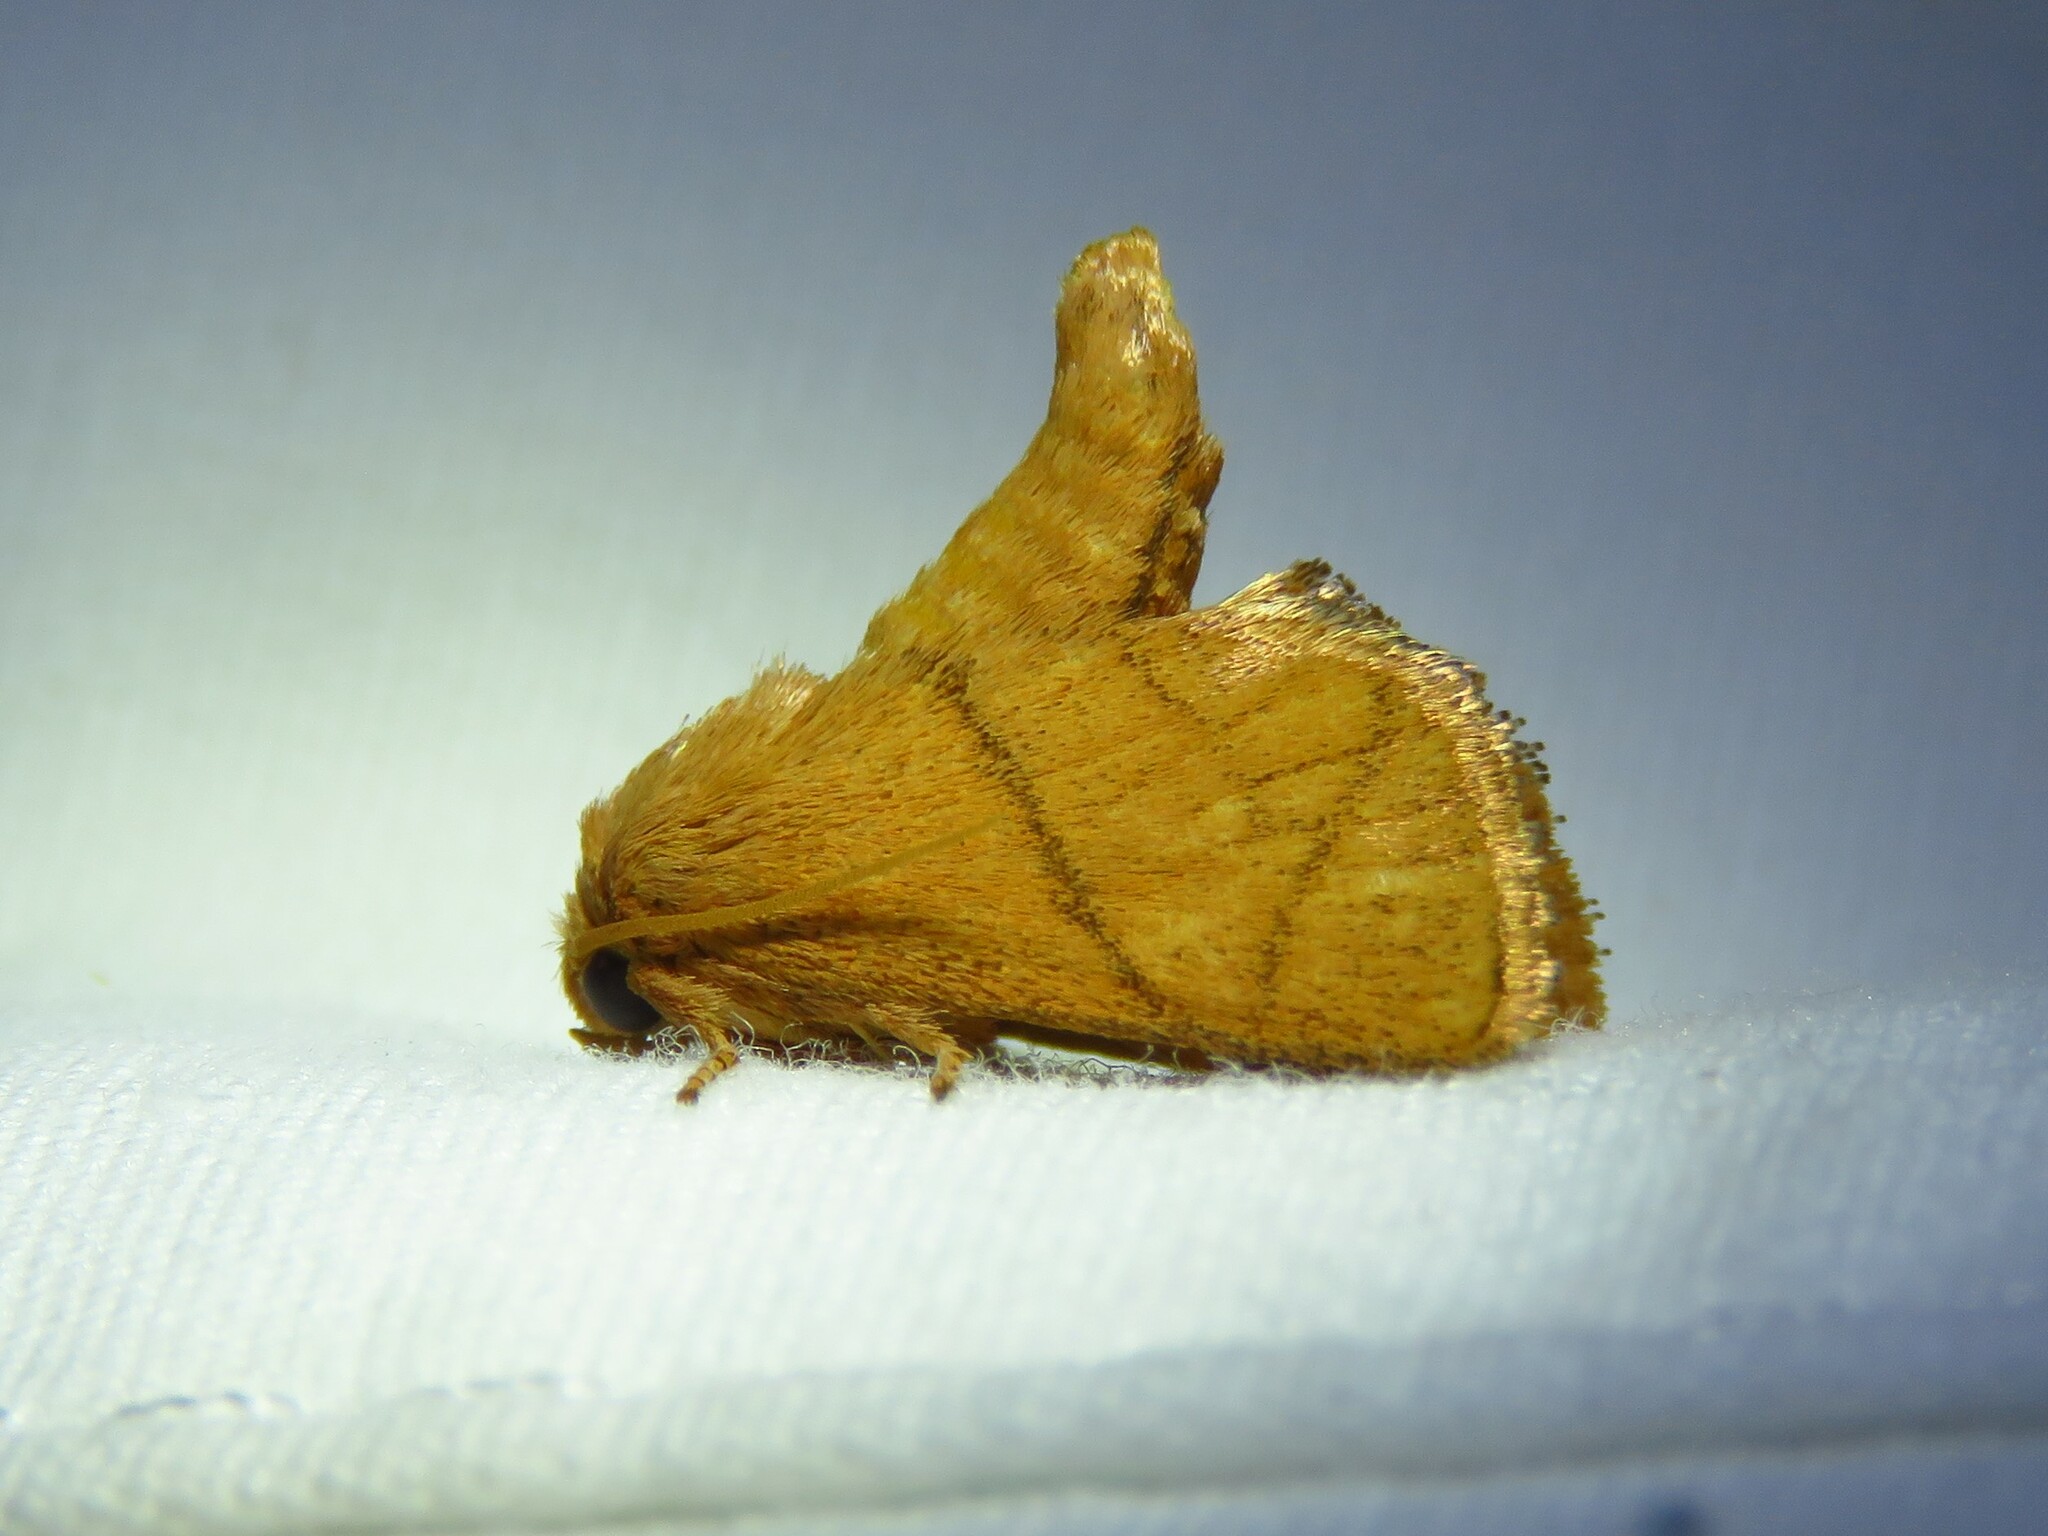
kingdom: Animalia
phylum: Arthropoda
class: Insecta
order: Lepidoptera
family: Limacodidae
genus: Apoda
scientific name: Apoda y-inversa
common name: Yellow-collared slug moth
